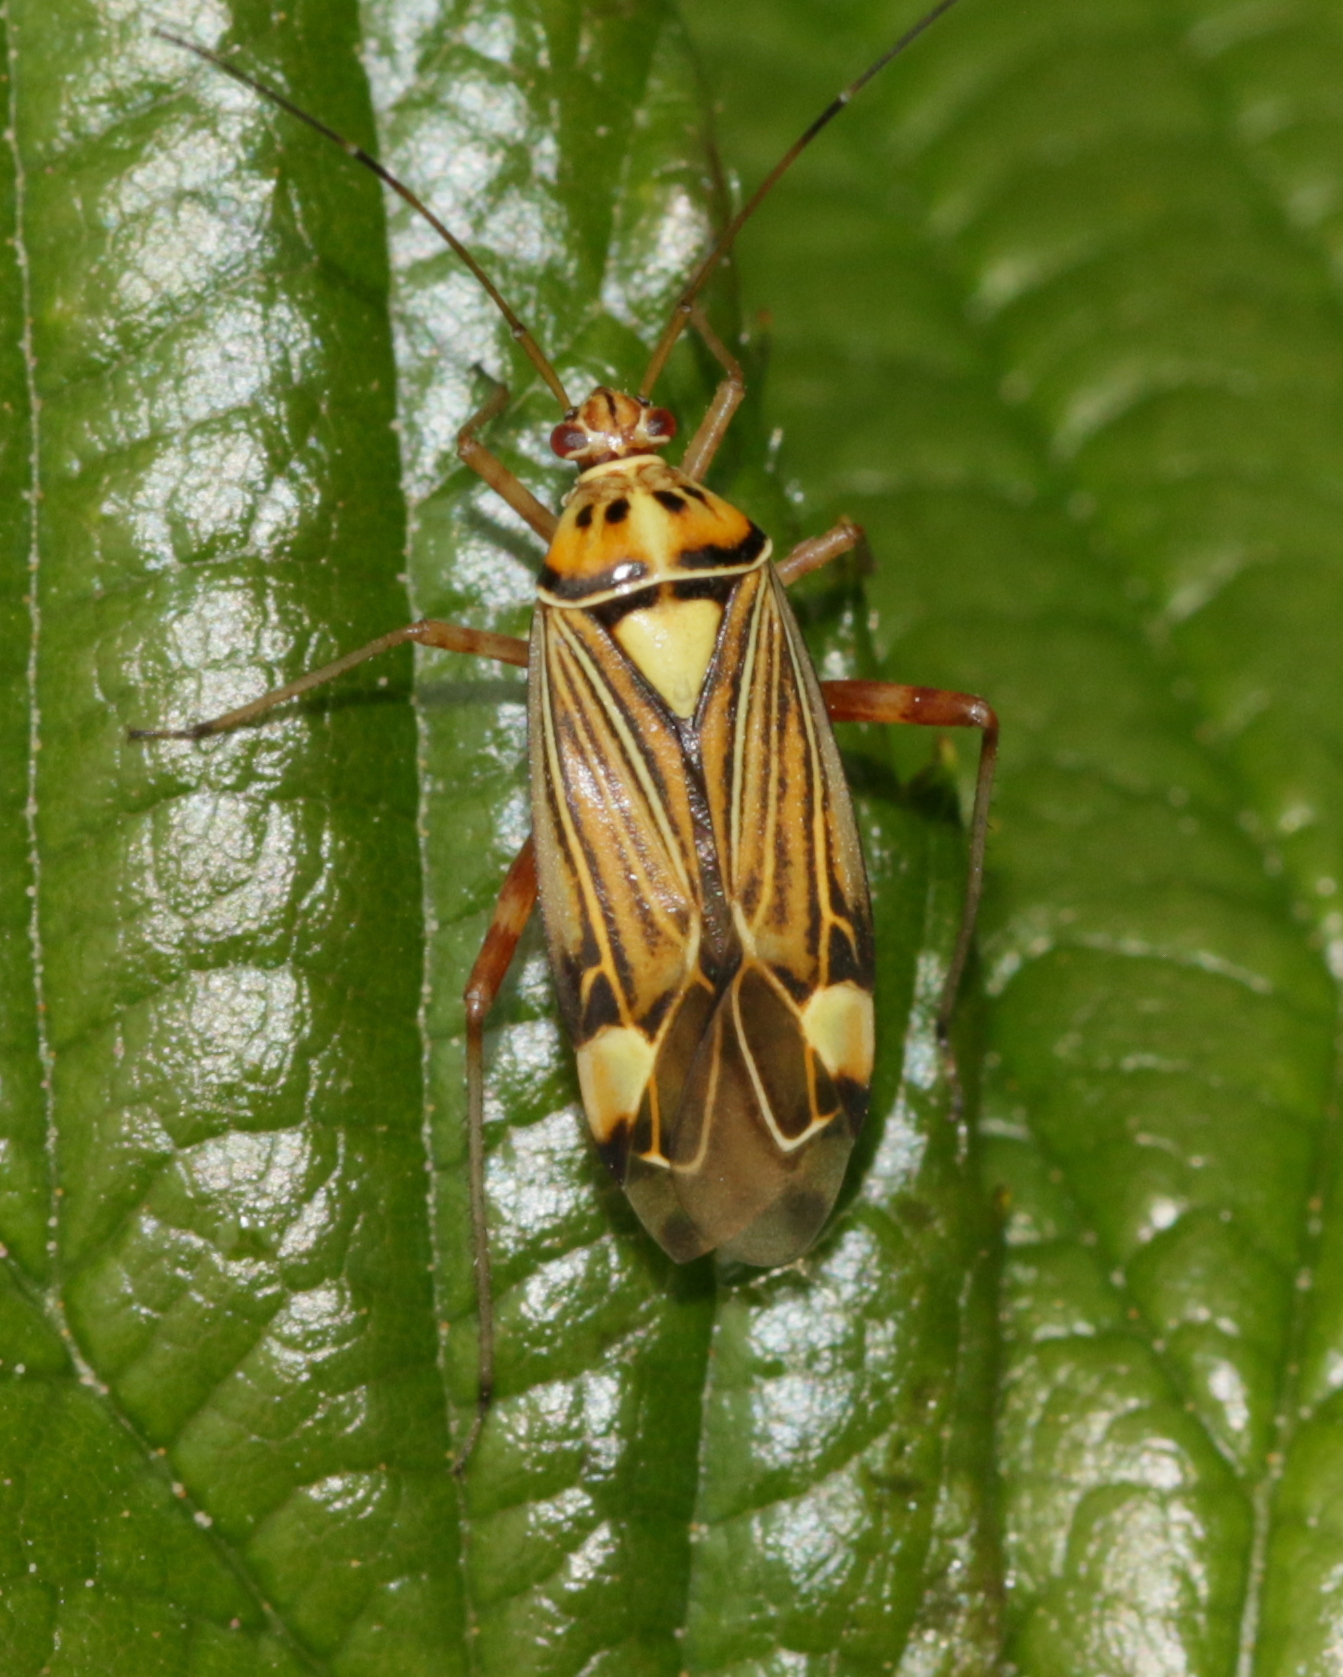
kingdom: Animalia
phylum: Arthropoda
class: Insecta
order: Hemiptera
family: Miridae
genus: Rhabdomiris
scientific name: Rhabdomiris striatellus
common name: Plant bug
